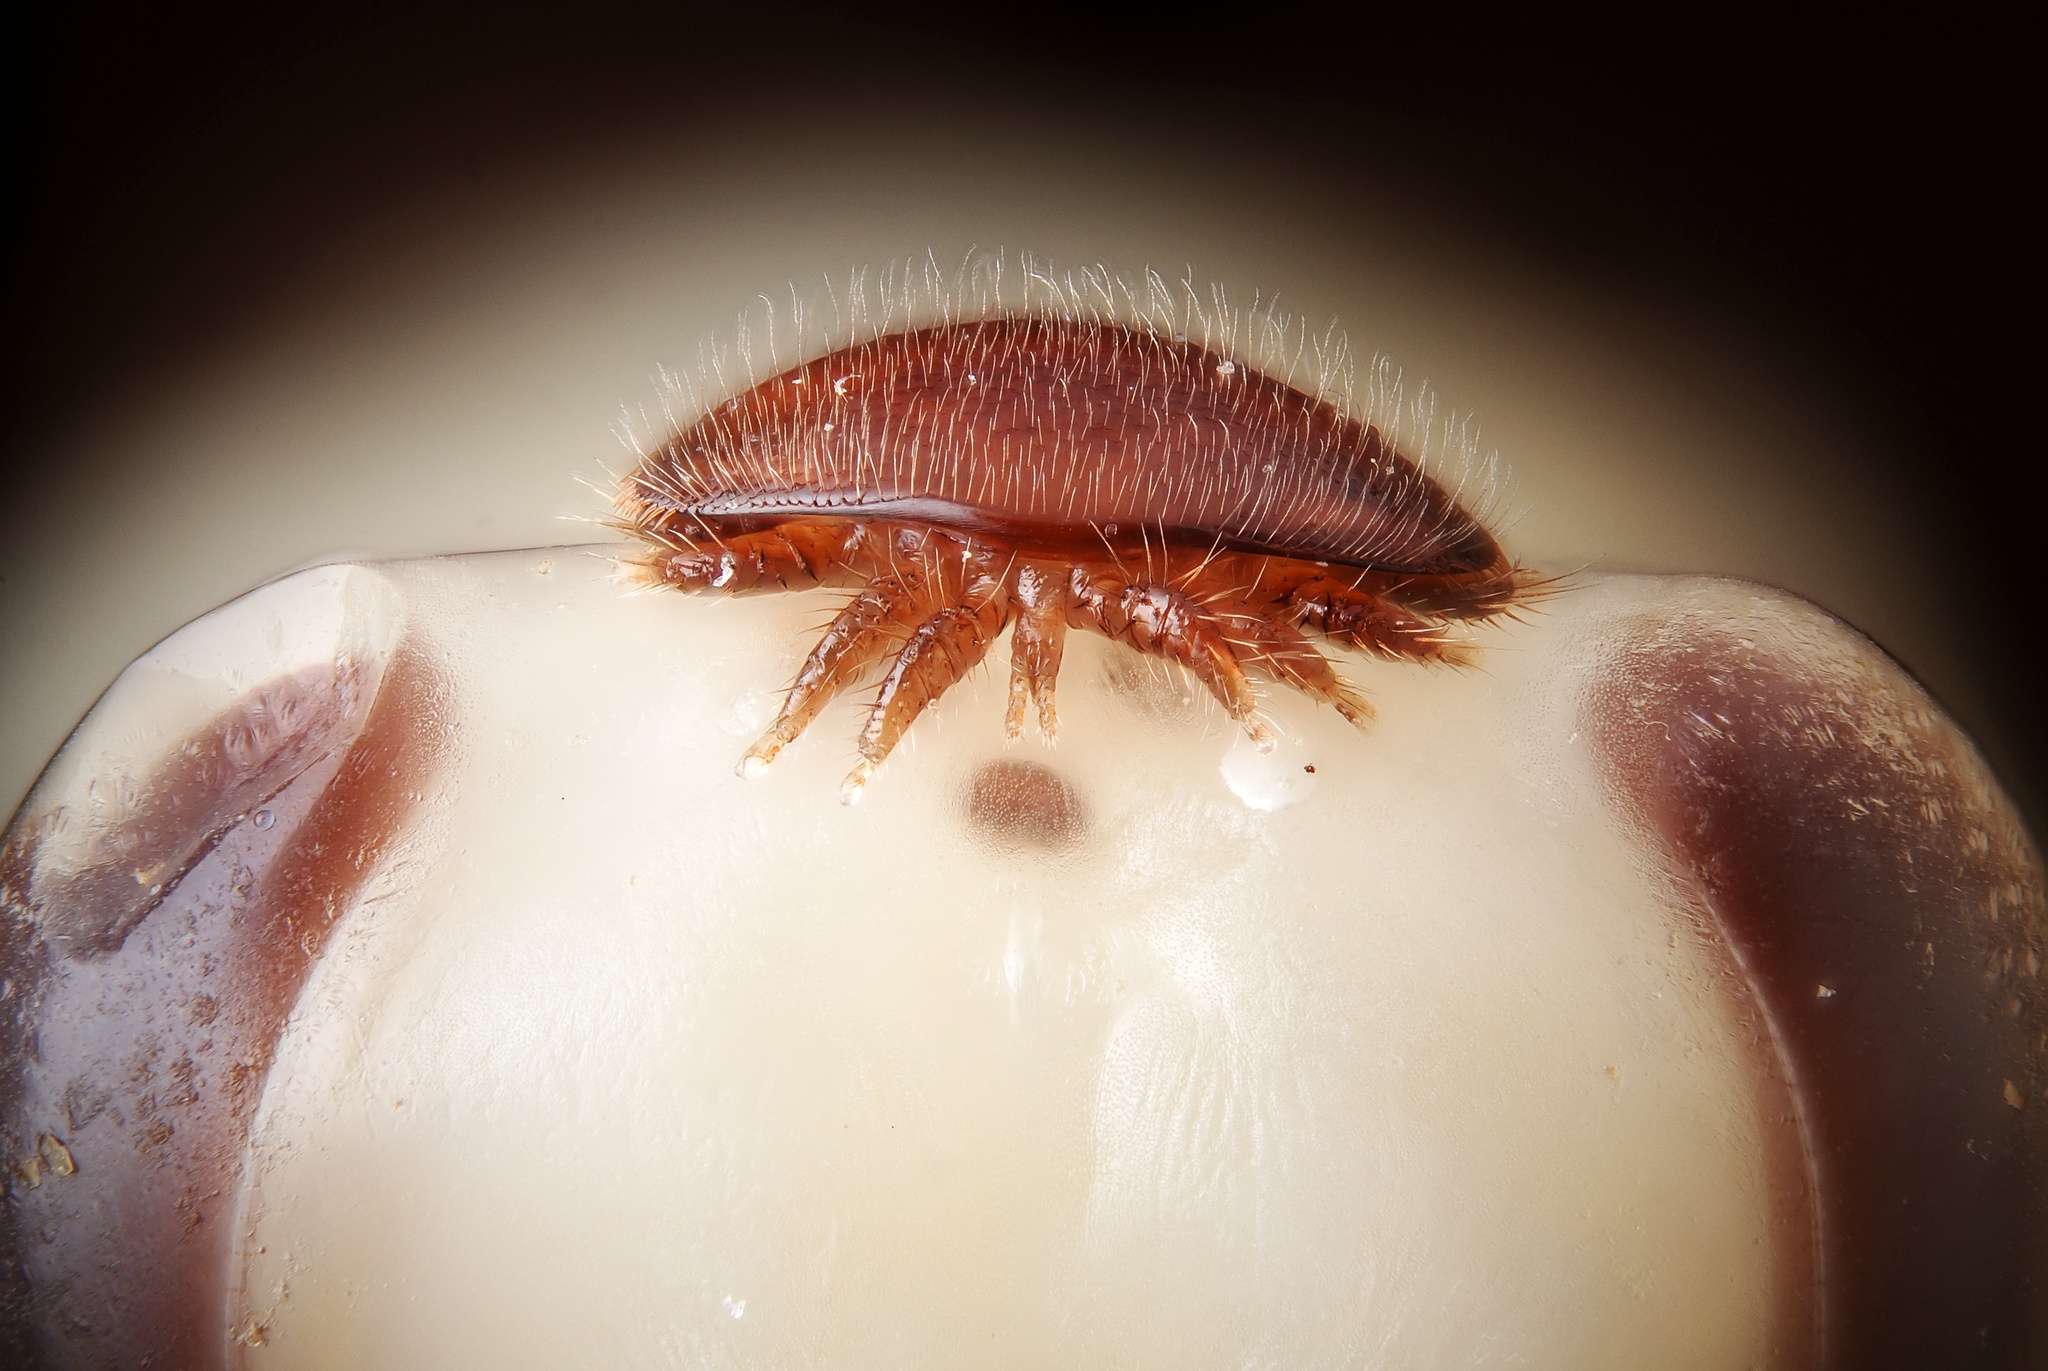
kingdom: Animalia
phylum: Arthropoda
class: Arachnida
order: Mesostigmata
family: Varroidae
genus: Varroa
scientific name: Varroa destructor
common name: Honey bee mite
